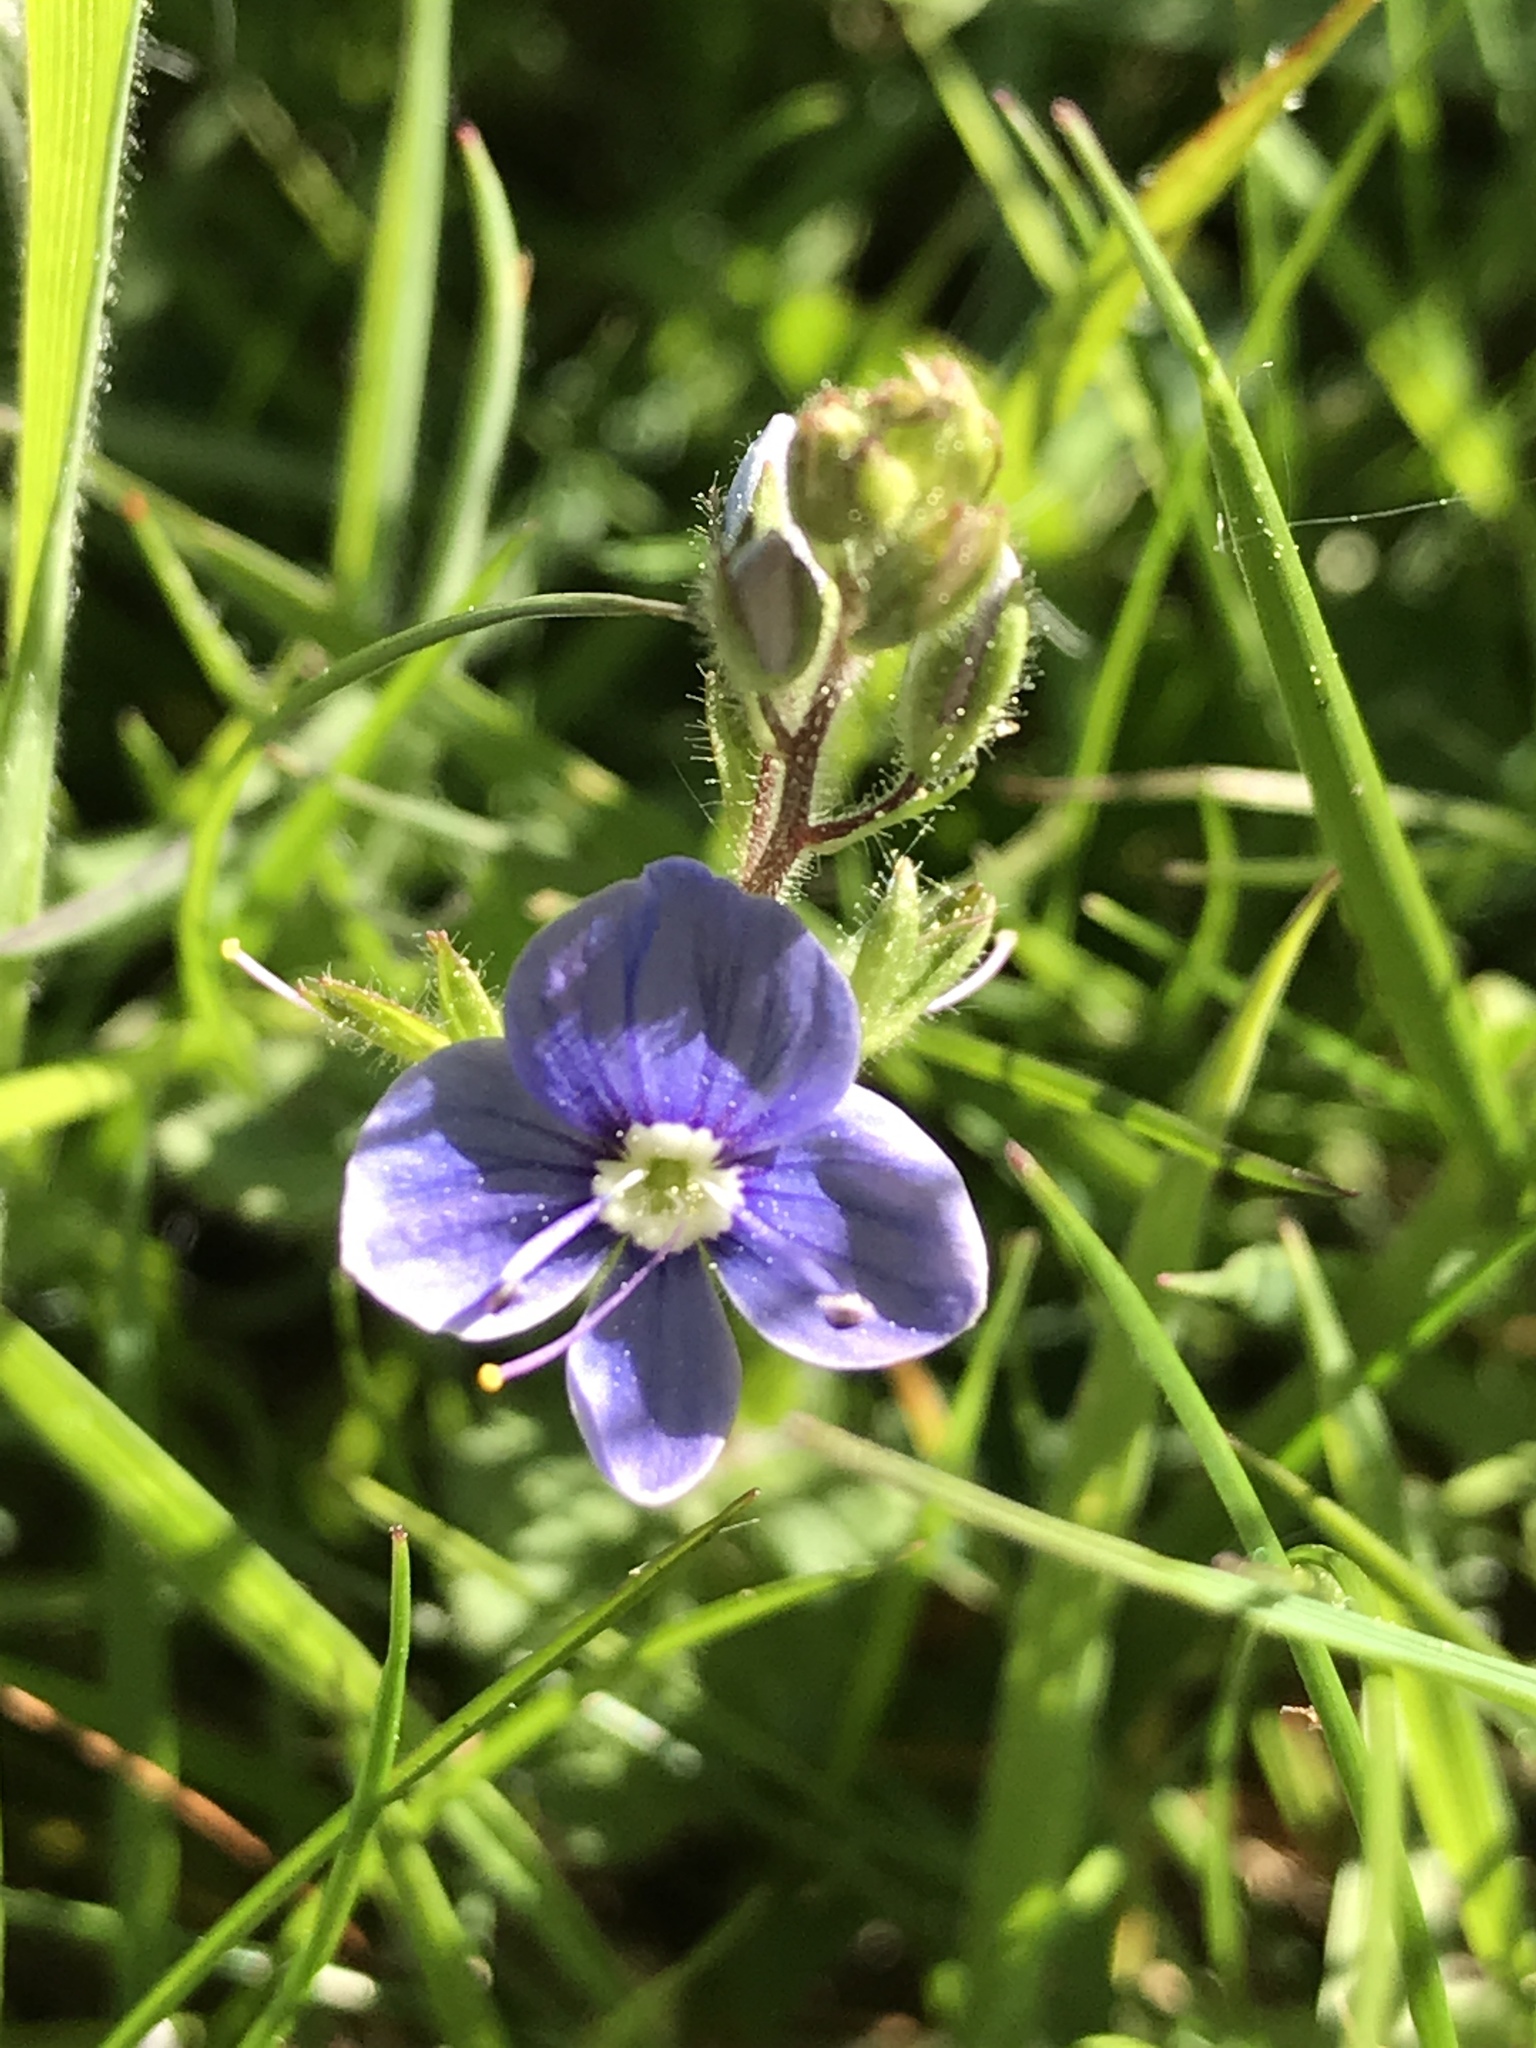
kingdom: Plantae
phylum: Tracheophyta
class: Magnoliopsida
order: Lamiales
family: Plantaginaceae
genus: Veronica
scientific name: Veronica chamaedrys
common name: Germander speedwell
